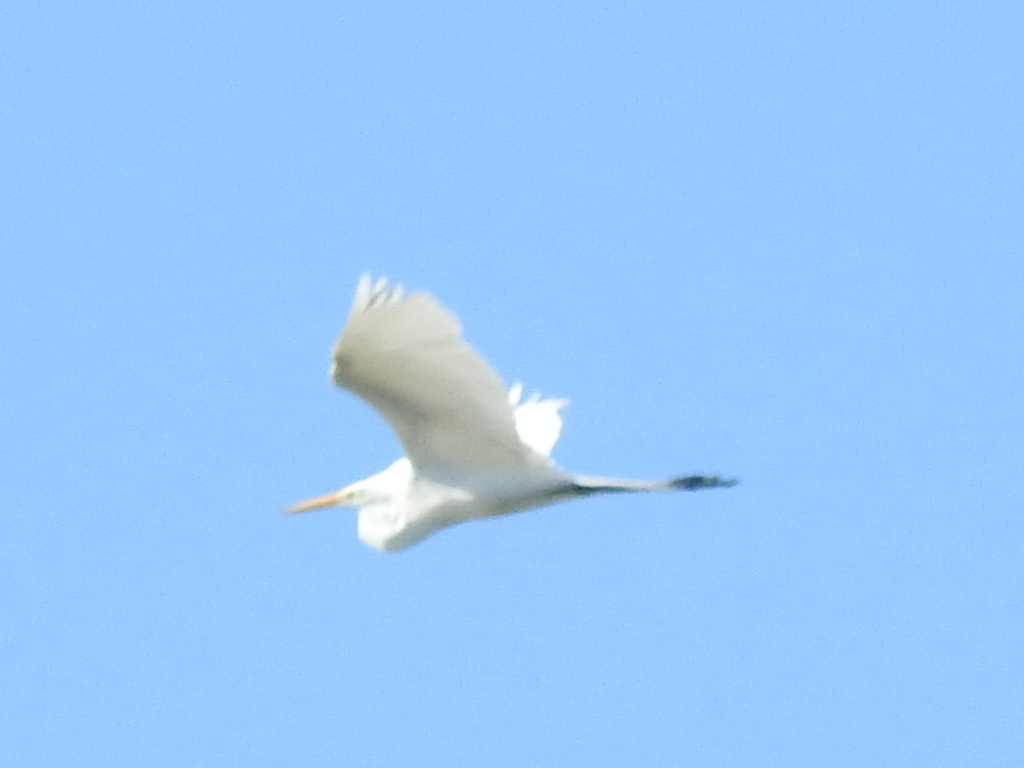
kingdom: Animalia
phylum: Chordata
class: Aves
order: Pelecaniformes
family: Ardeidae
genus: Ardea
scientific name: Ardea alba
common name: Great egret
